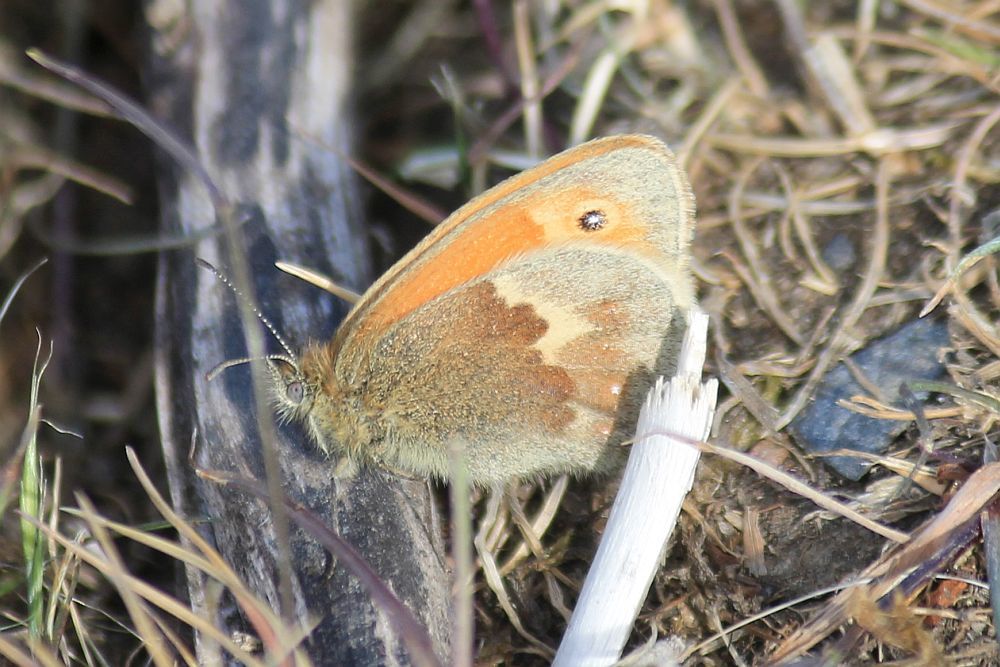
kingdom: Animalia
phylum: Arthropoda
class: Insecta
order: Lepidoptera
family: Nymphalidae
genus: Coenonympha
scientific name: Coenonympha pamphilus
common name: Small heath
